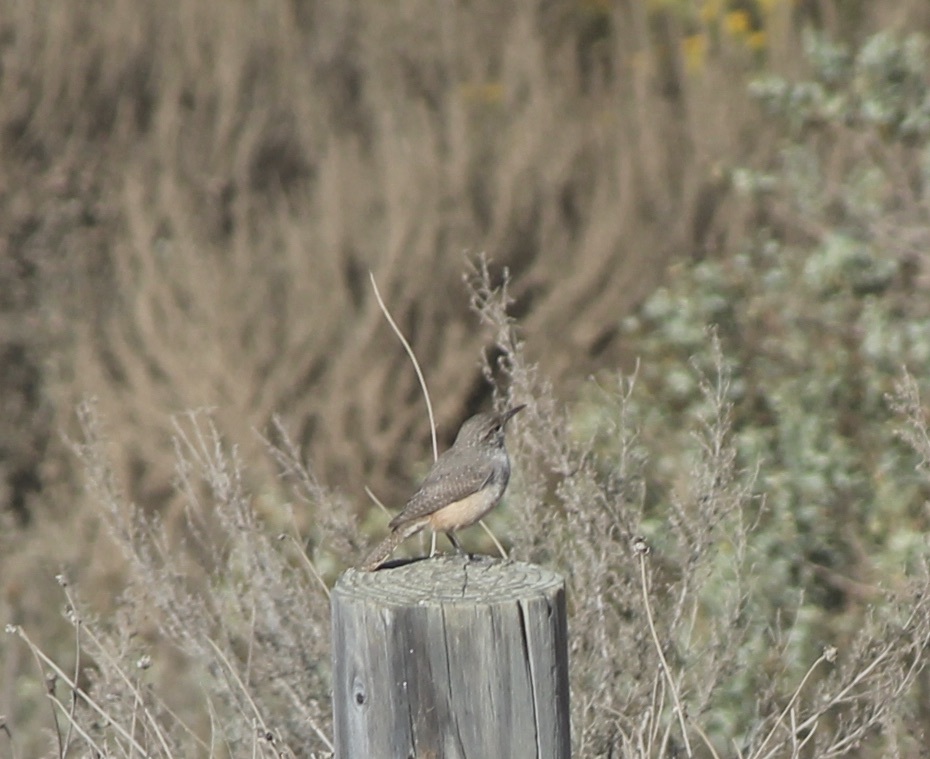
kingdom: Animalia
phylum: Chordata
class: Aves
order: Passeriformes
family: Troglodytidae
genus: Salpinctes
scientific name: Salpinctes obsoletus
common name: Rock wren
